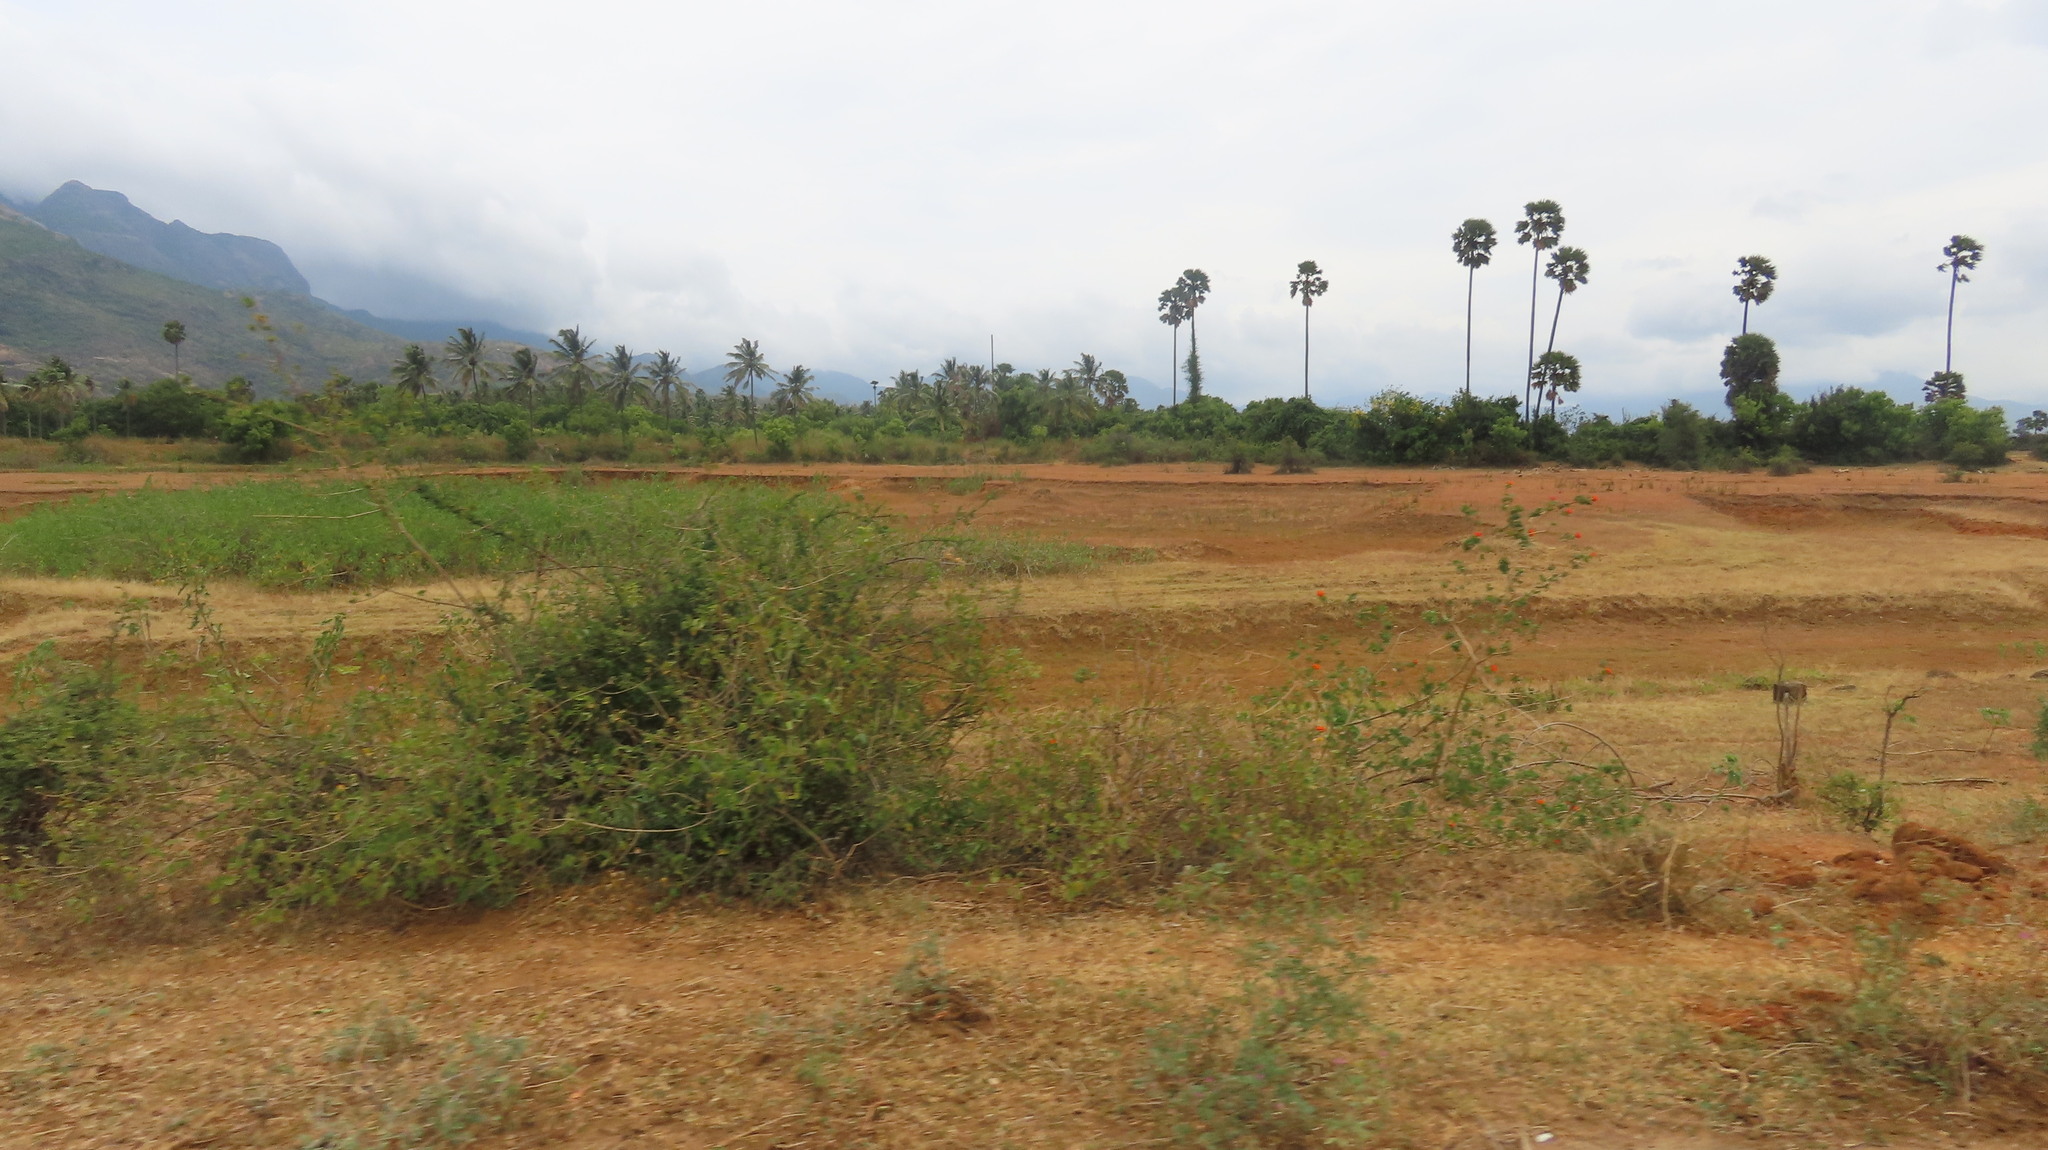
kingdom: Plantae
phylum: Tracheophyta
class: Liliopsida
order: Arecales
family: Arecaceae
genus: Borassus
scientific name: Borassus flabellifer
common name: Palmyra palm
